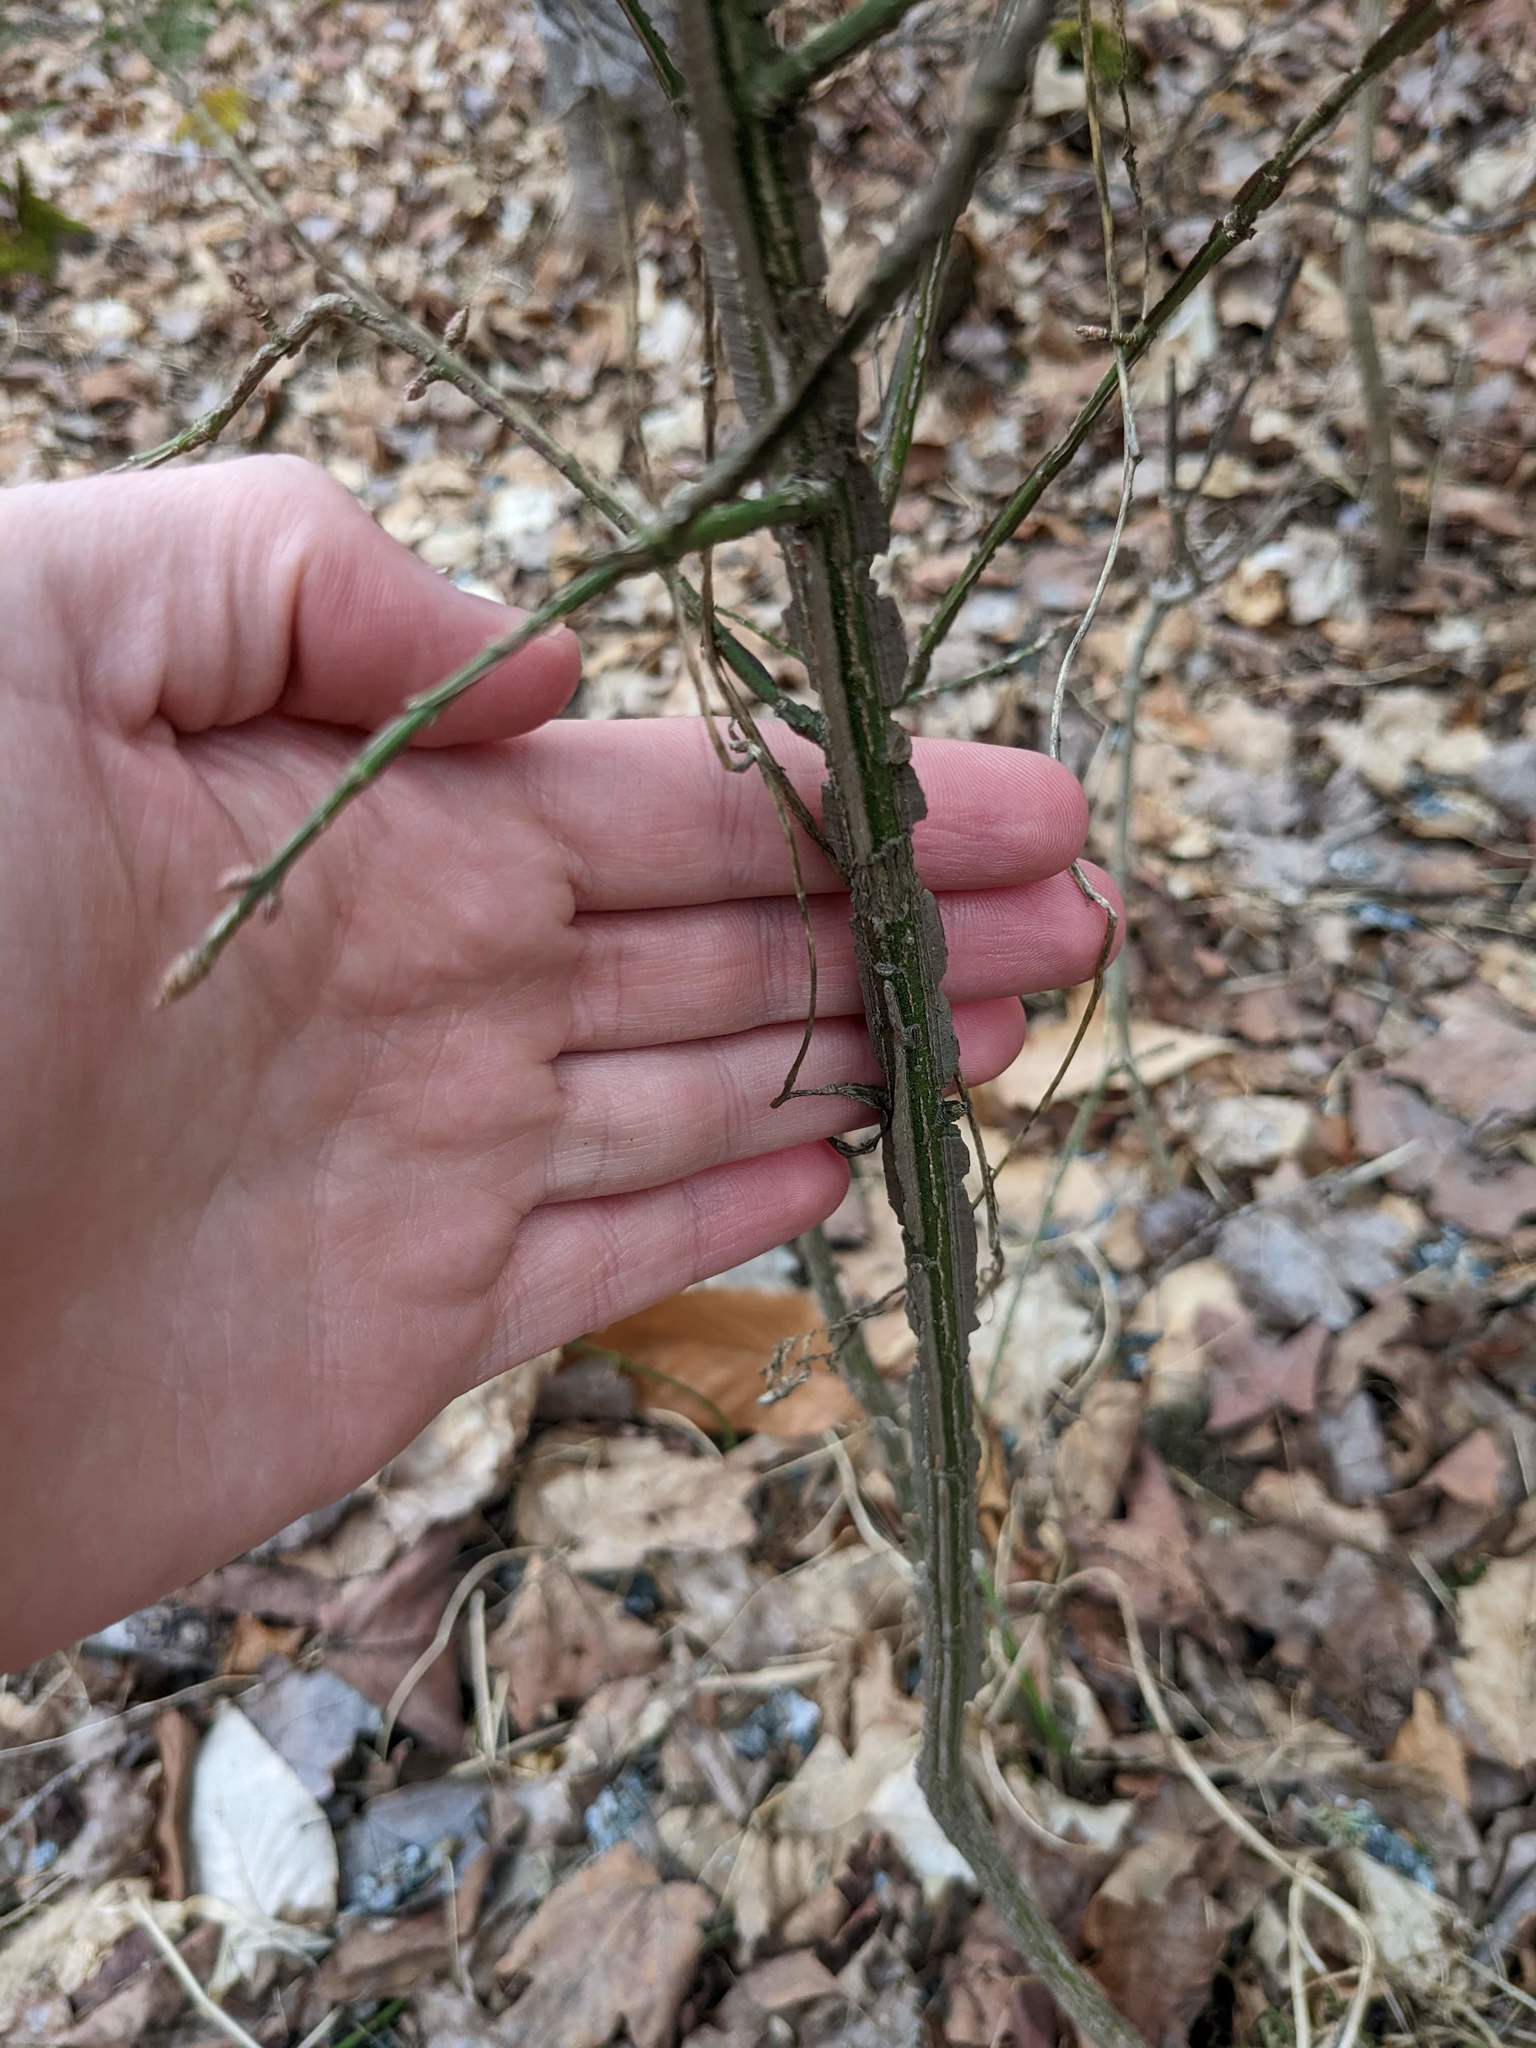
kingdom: Plantae
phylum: Tracheophyta
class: Magnoliopsida
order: Celastrales
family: Celastraceae
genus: Euonymus
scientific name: Euonymus alatus
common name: Winged euonymus
